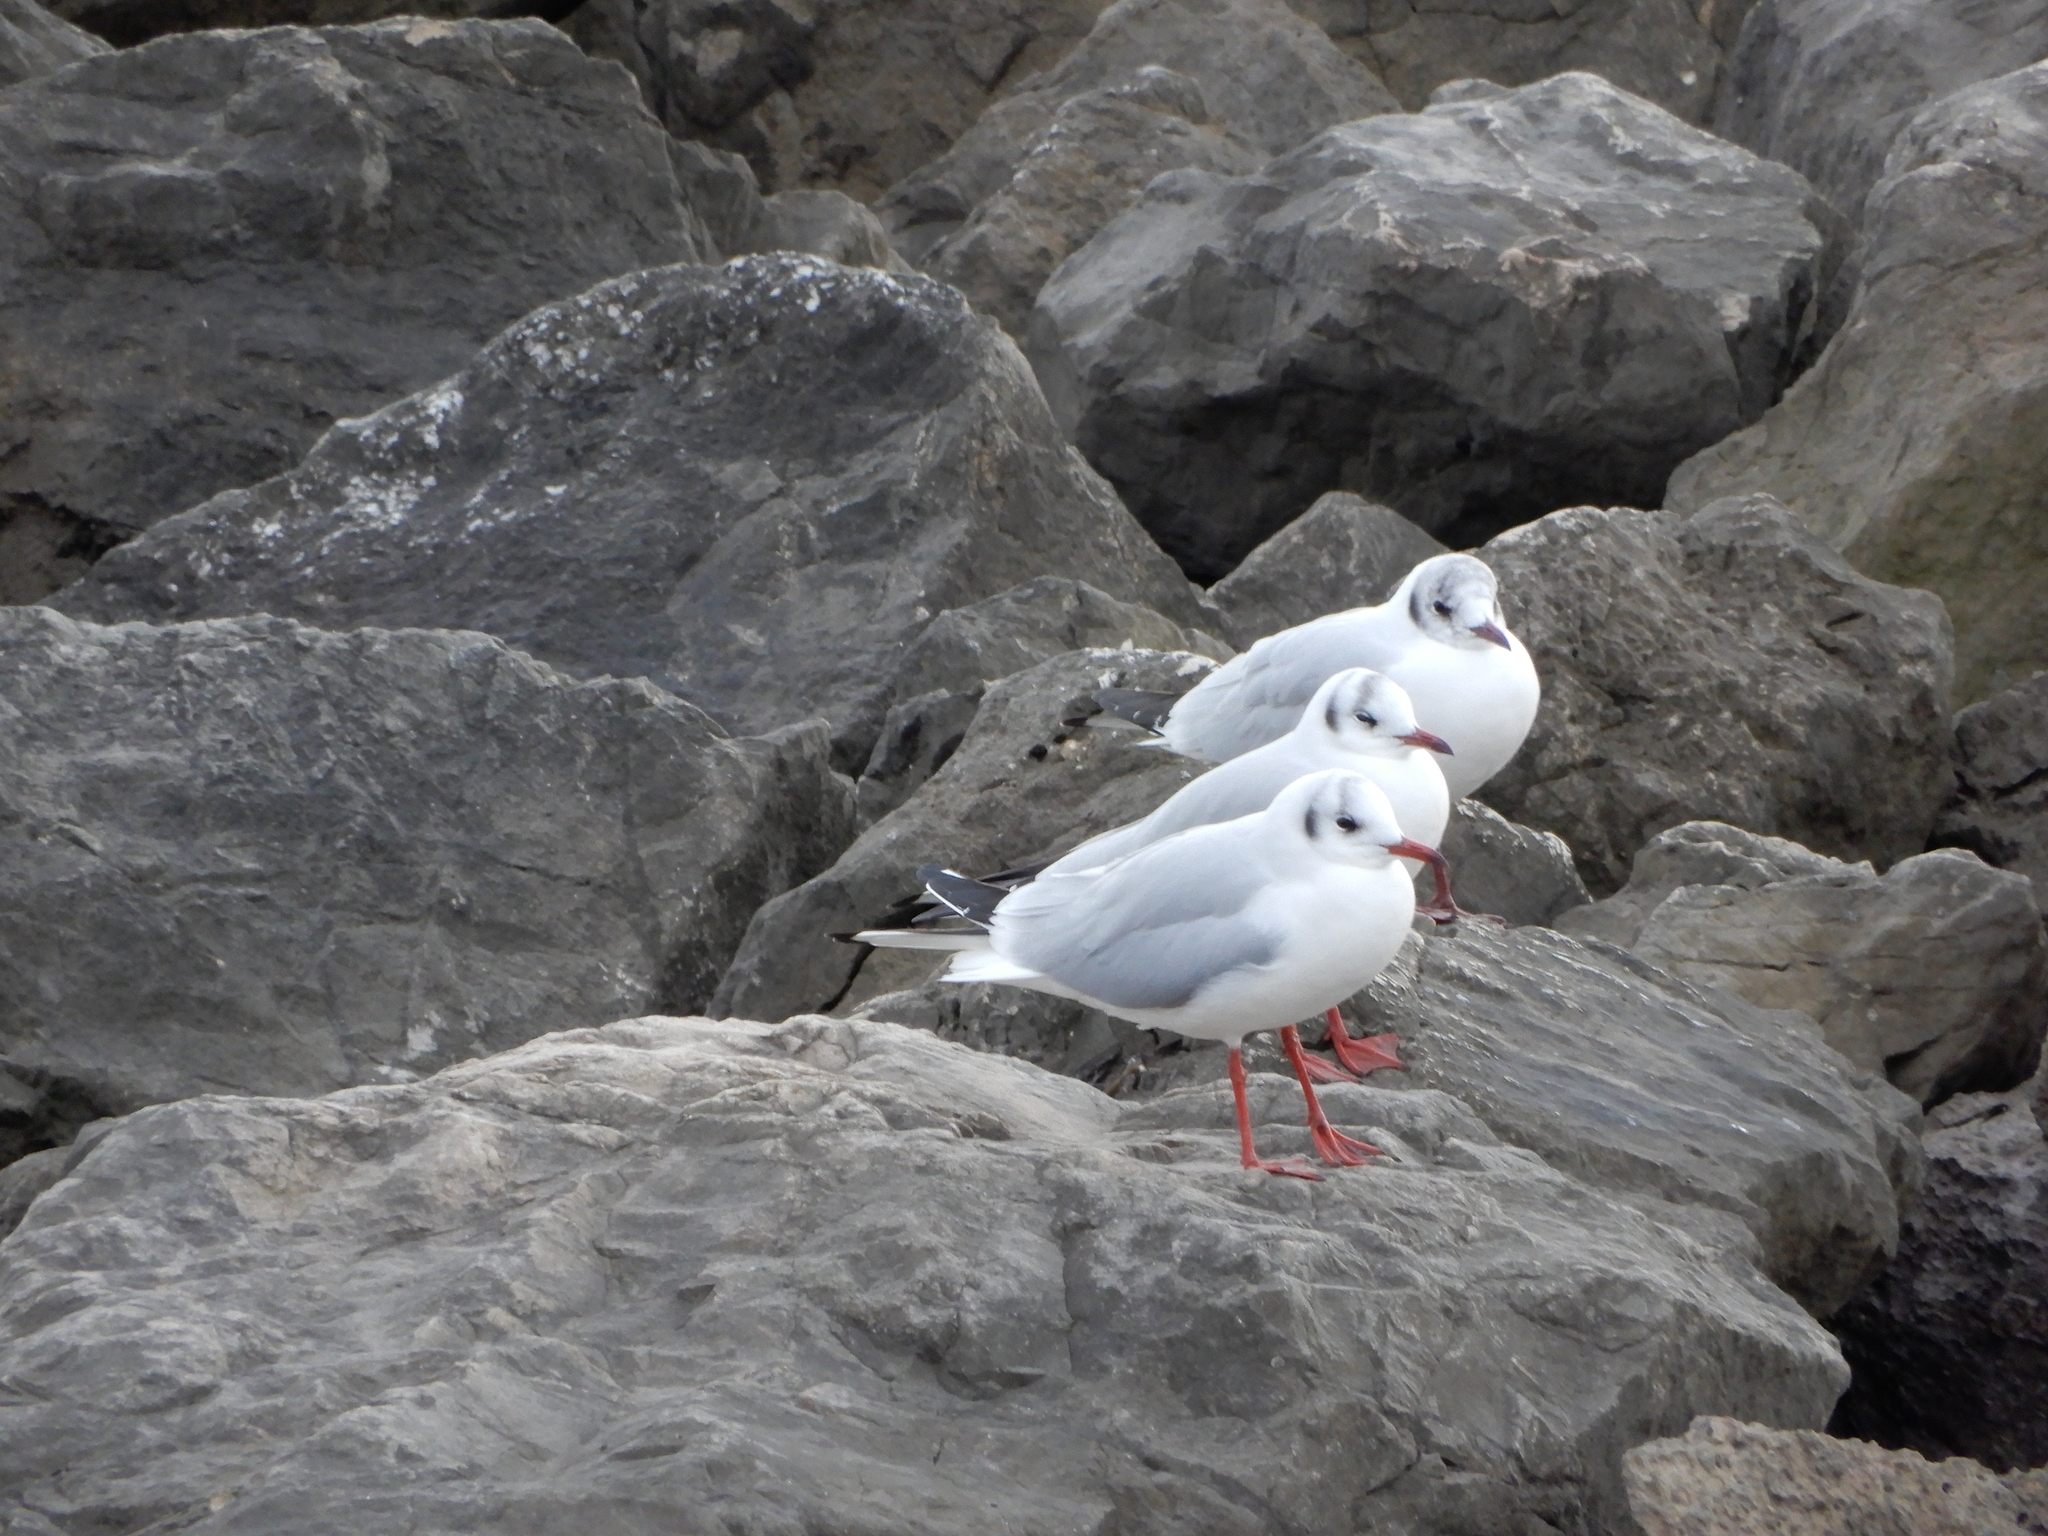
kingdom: Animalia
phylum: Chordata
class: Aves
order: Charadriiformes
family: Laridae
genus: Chroicocephalus
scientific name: Chroicocephalus ridibundus
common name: Black-headed gull
